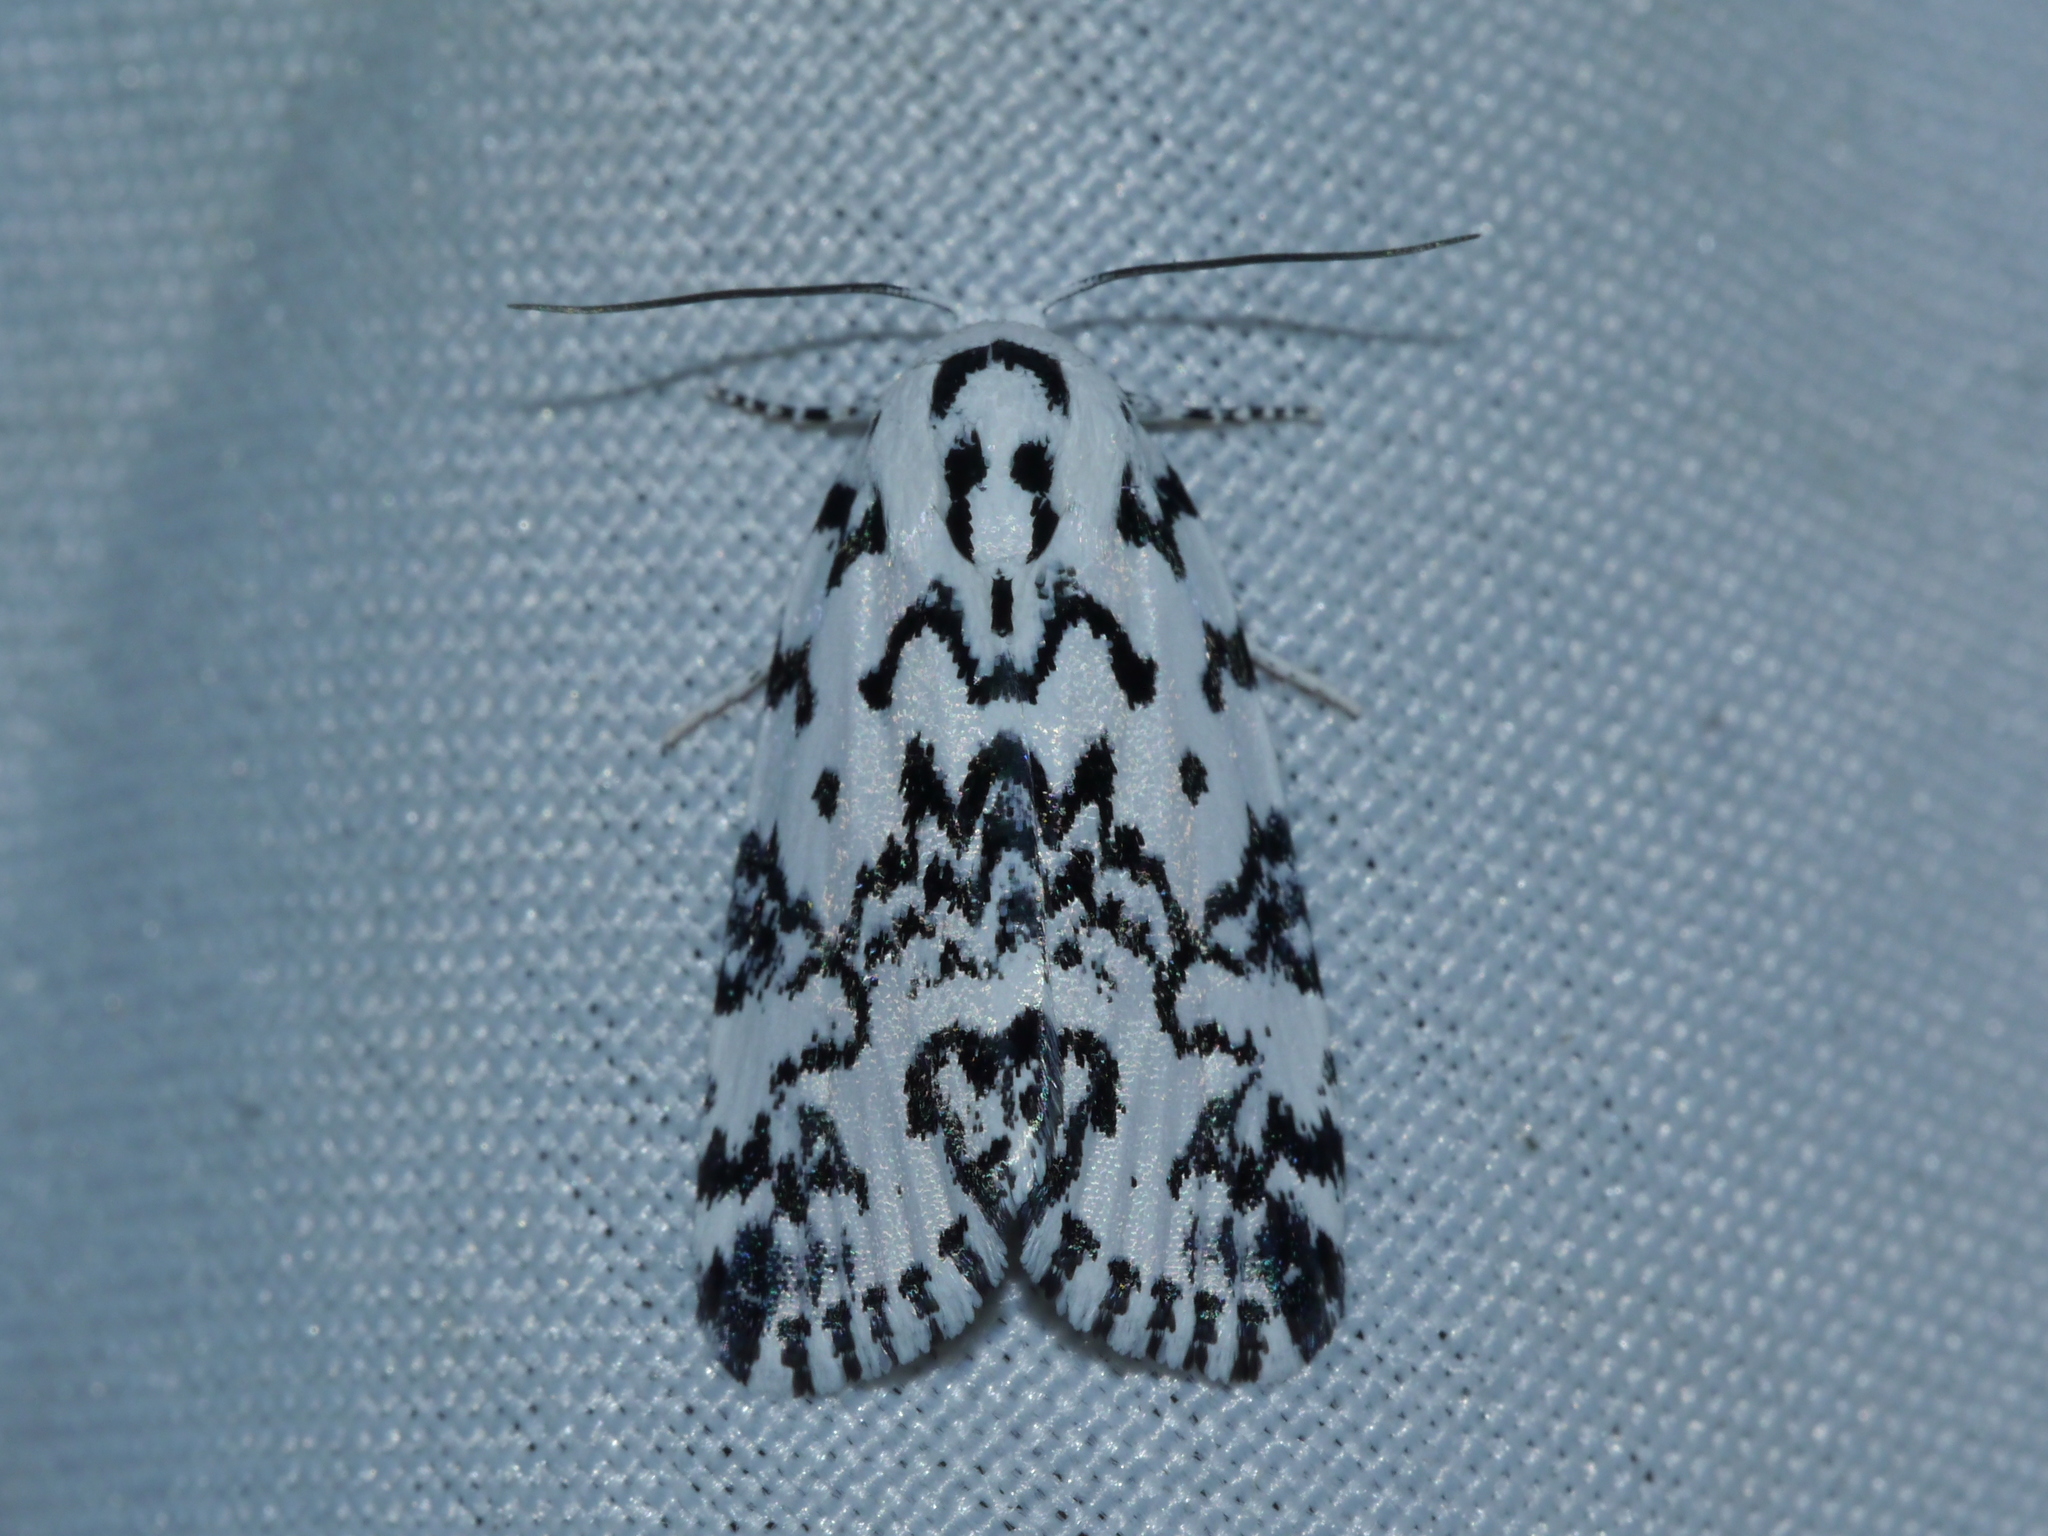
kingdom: Animalia
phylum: Arthropoda
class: Insecta
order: Lepidoptera
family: Noctuidae
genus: Polygrammate
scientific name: Polygrammate hebraeicum
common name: Hebrew moth
